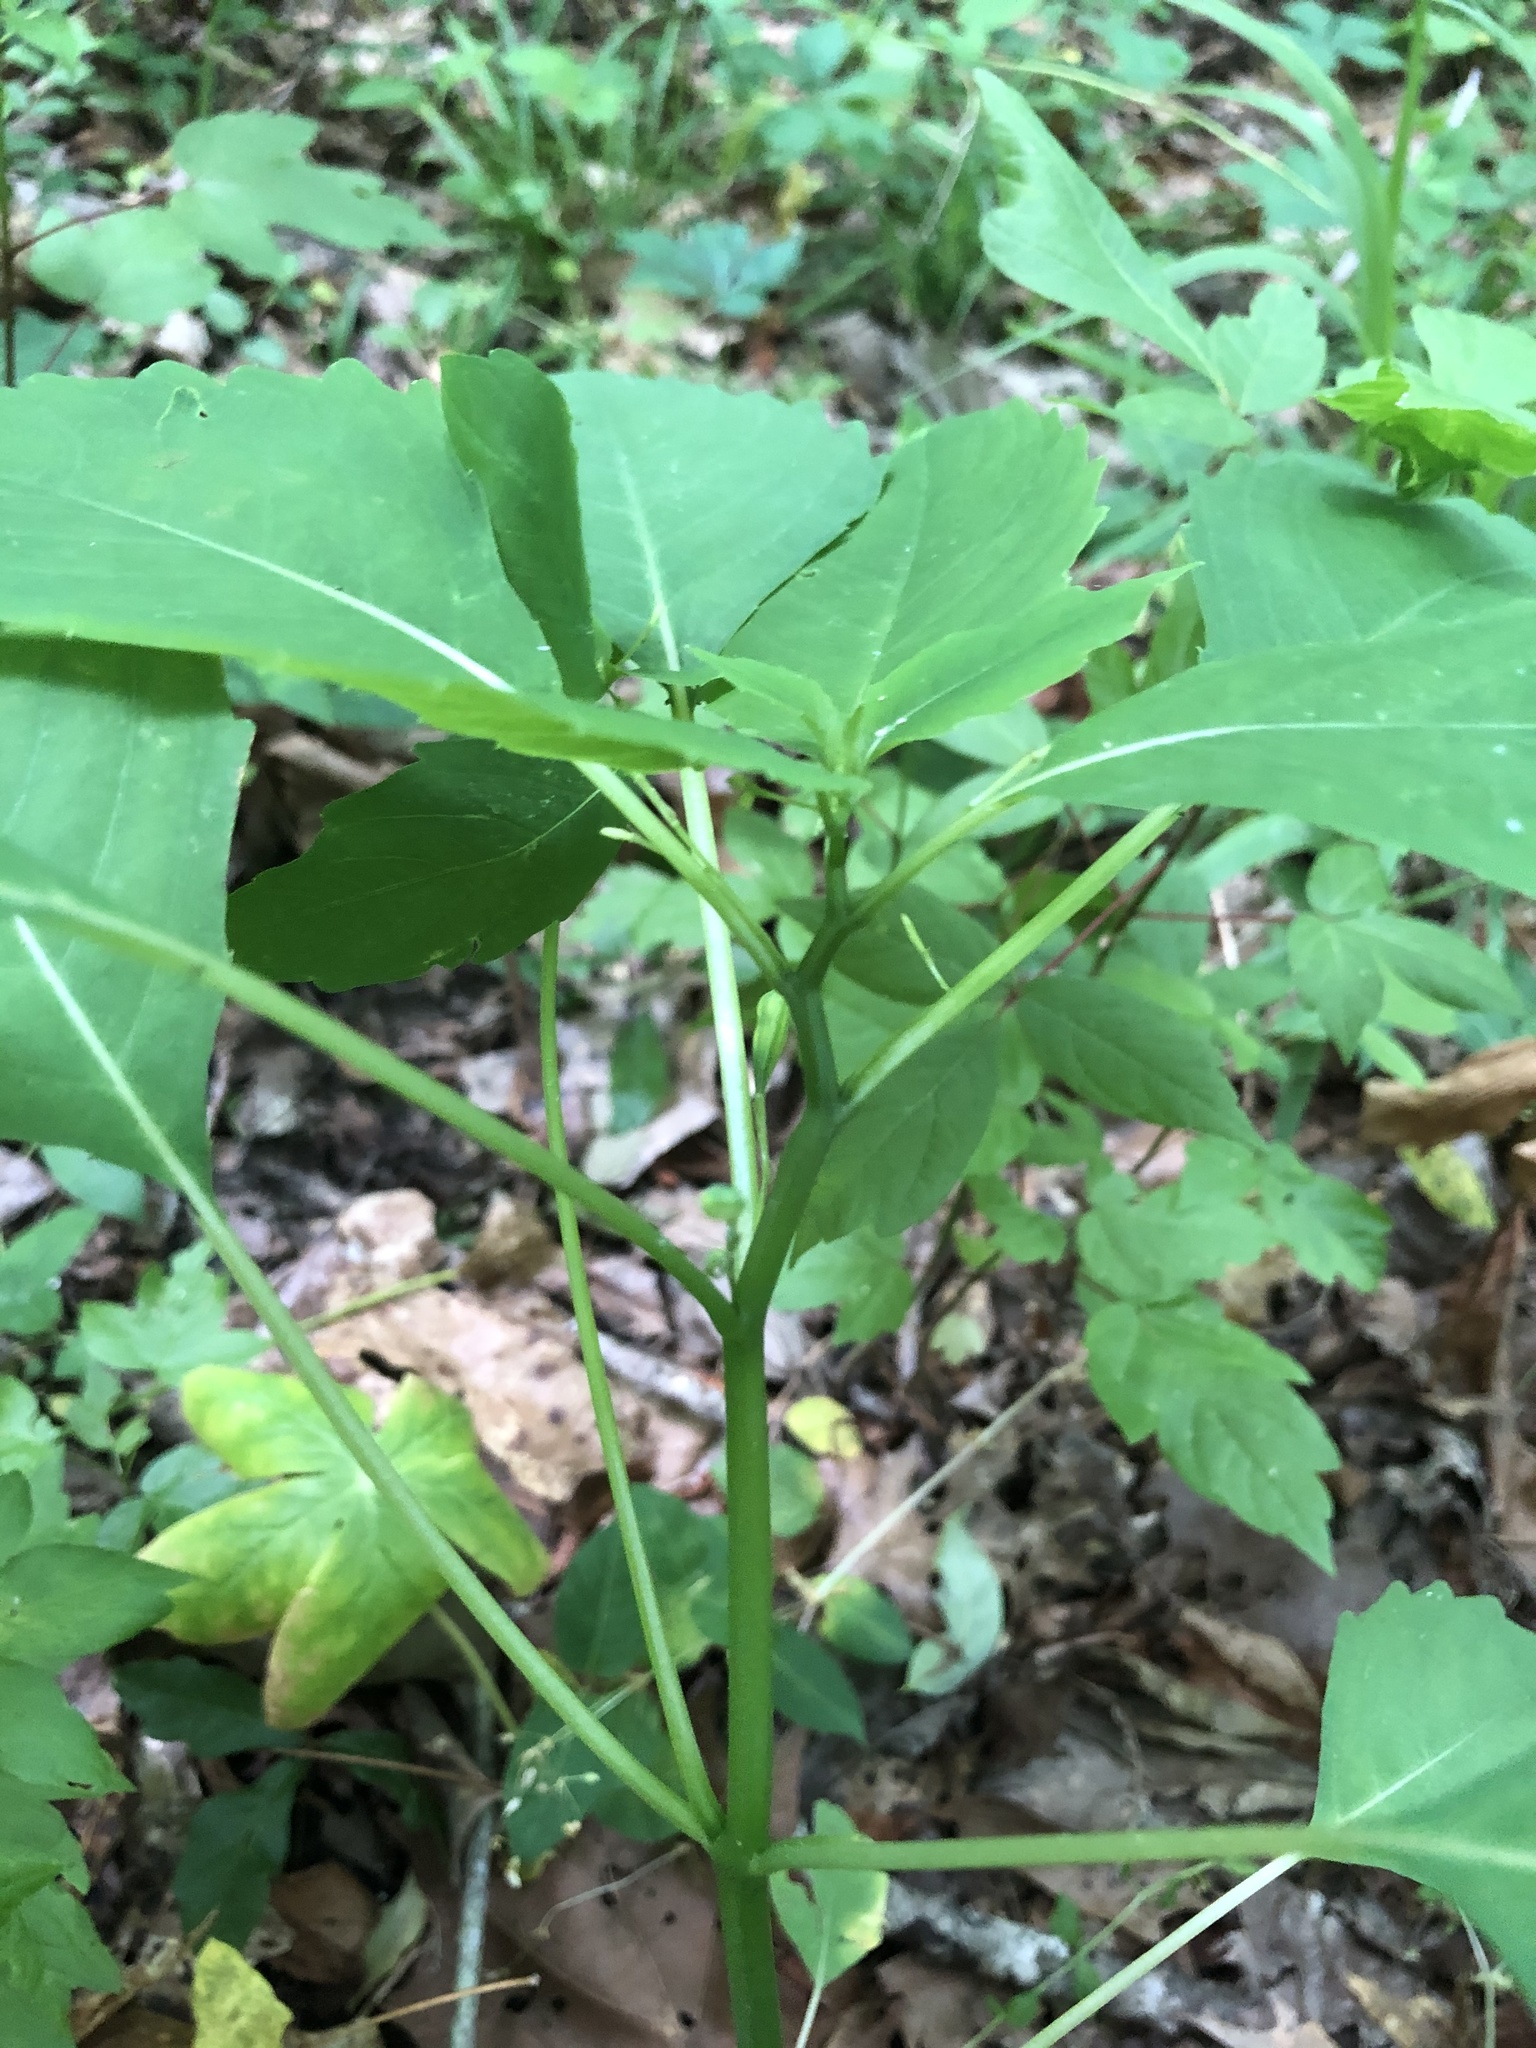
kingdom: Plantae
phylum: Tracheophyta
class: Magnoliopsida
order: Ericales
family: Balsaminaceae
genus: Impatiens
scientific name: Impatiens capensis
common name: Orange balsam
